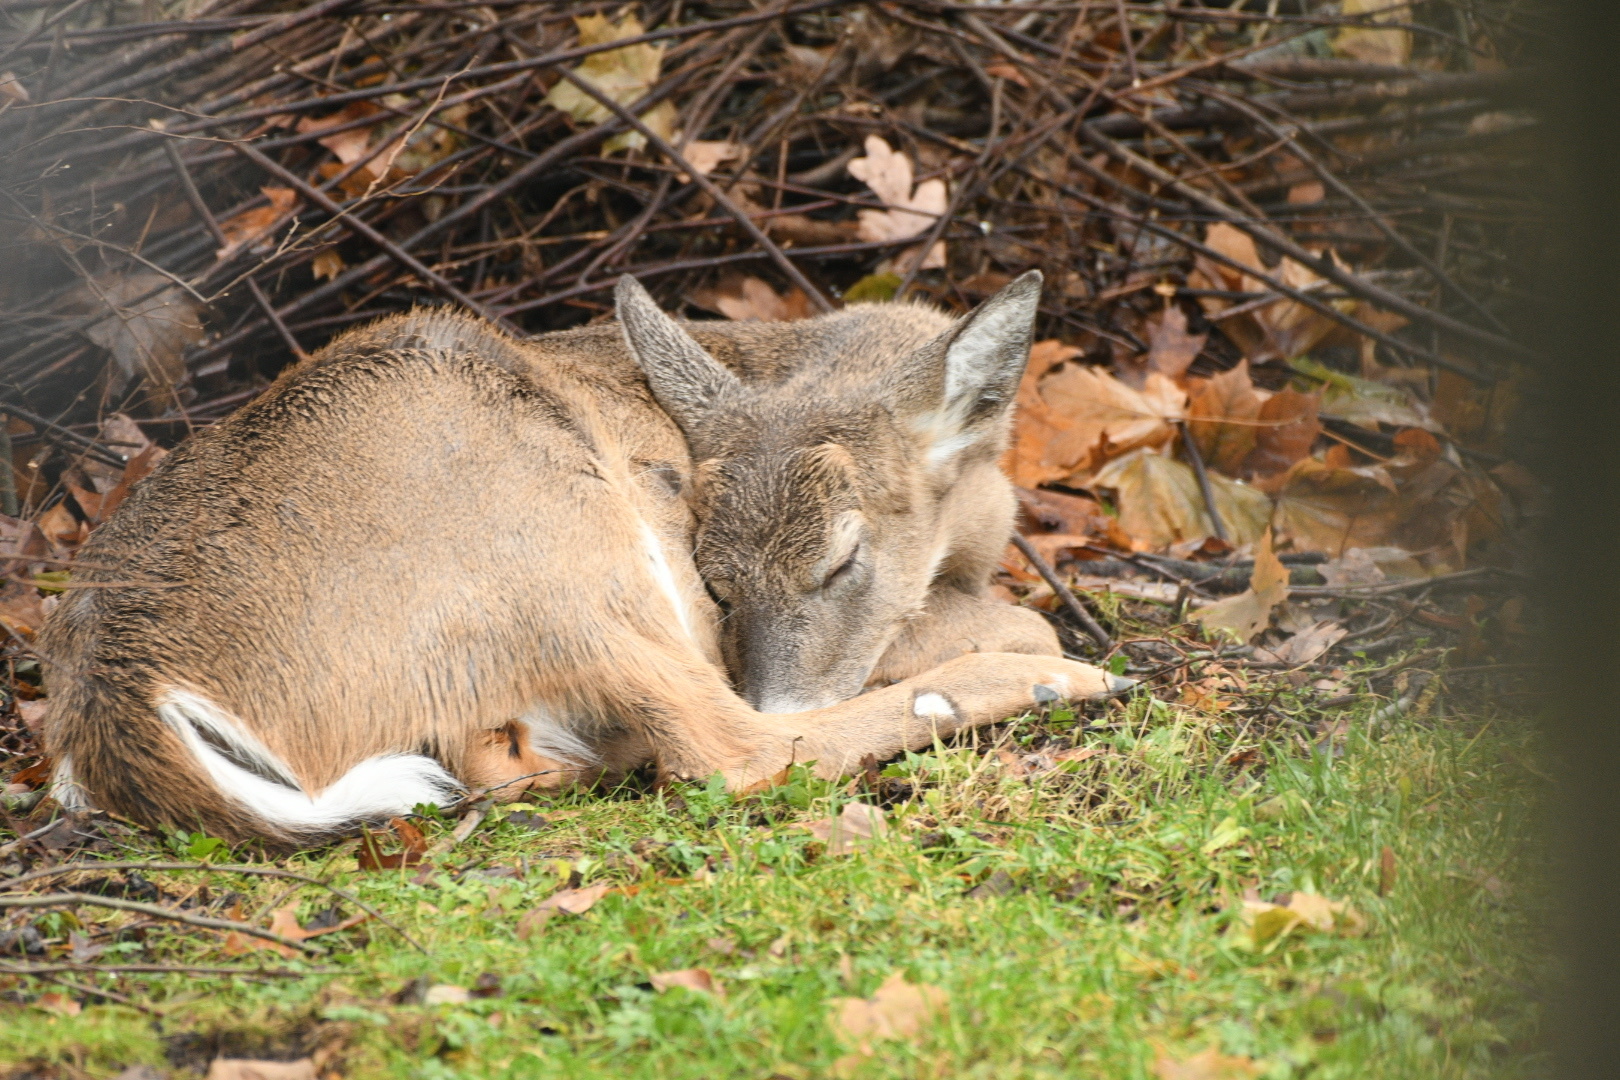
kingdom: Animalia
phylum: Chordata
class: Mammalia
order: Artiodactyla
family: Cervidae
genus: Odocoileus
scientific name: Odocoileus virginianus
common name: White-tailed deer
